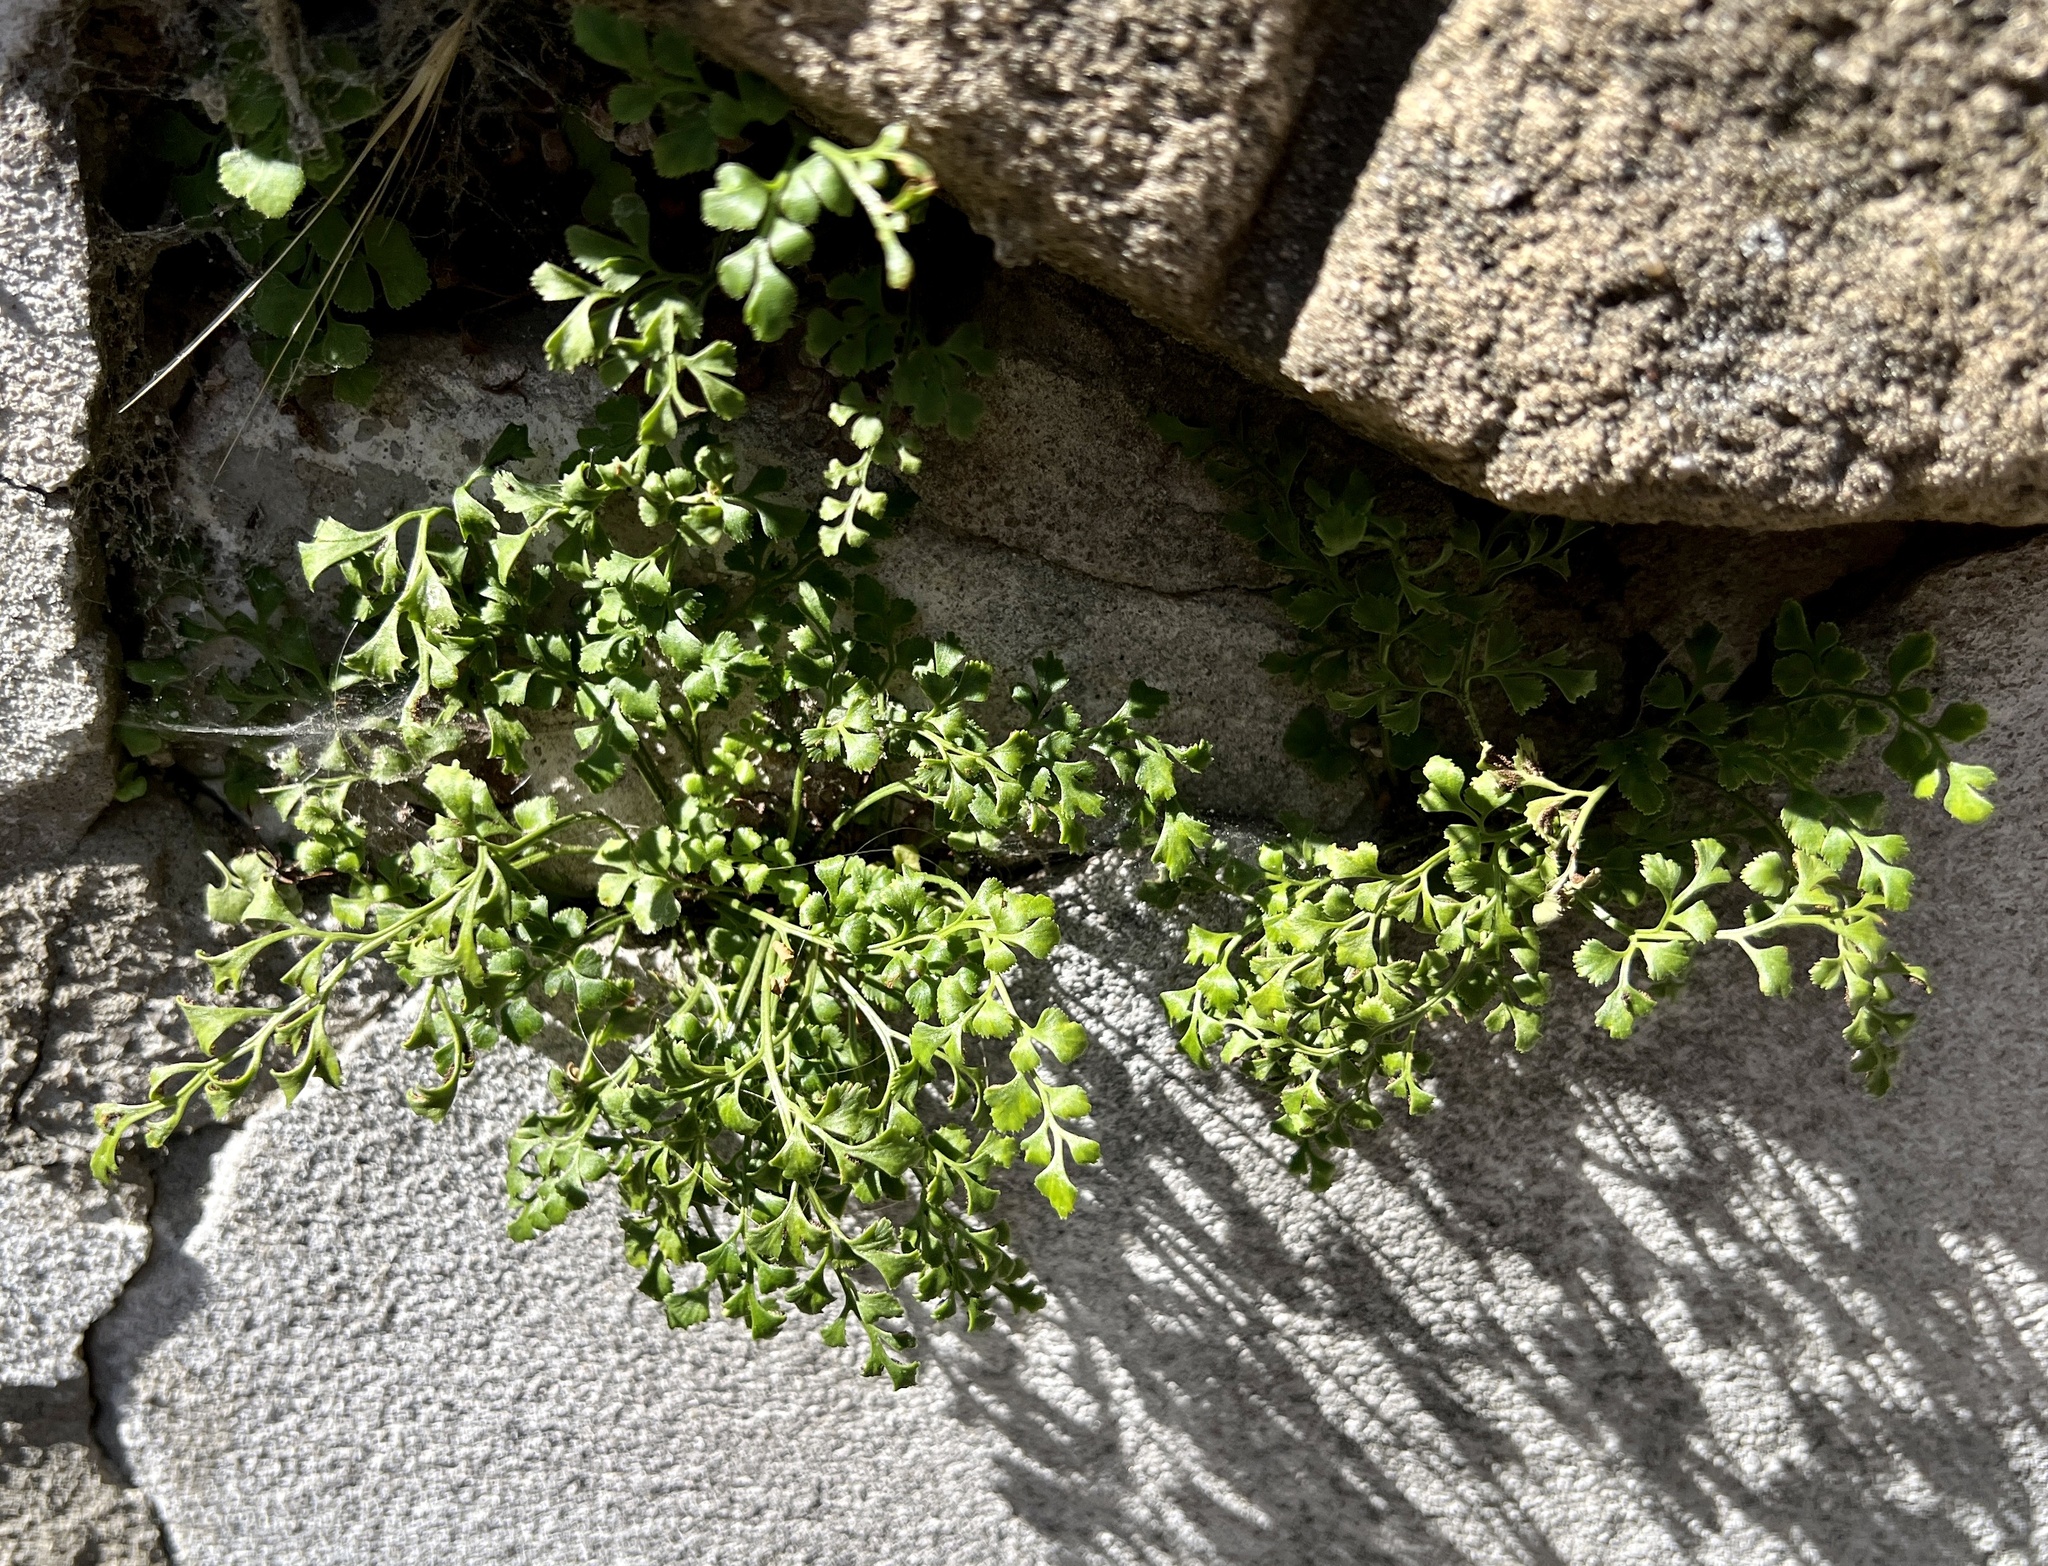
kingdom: Plantae
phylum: Tracheophyta
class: Polypodiopsida
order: Polypodiales
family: Aspleniaceae
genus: Asplenium
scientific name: Asplenium ruta-muraria
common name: Wall-rue
